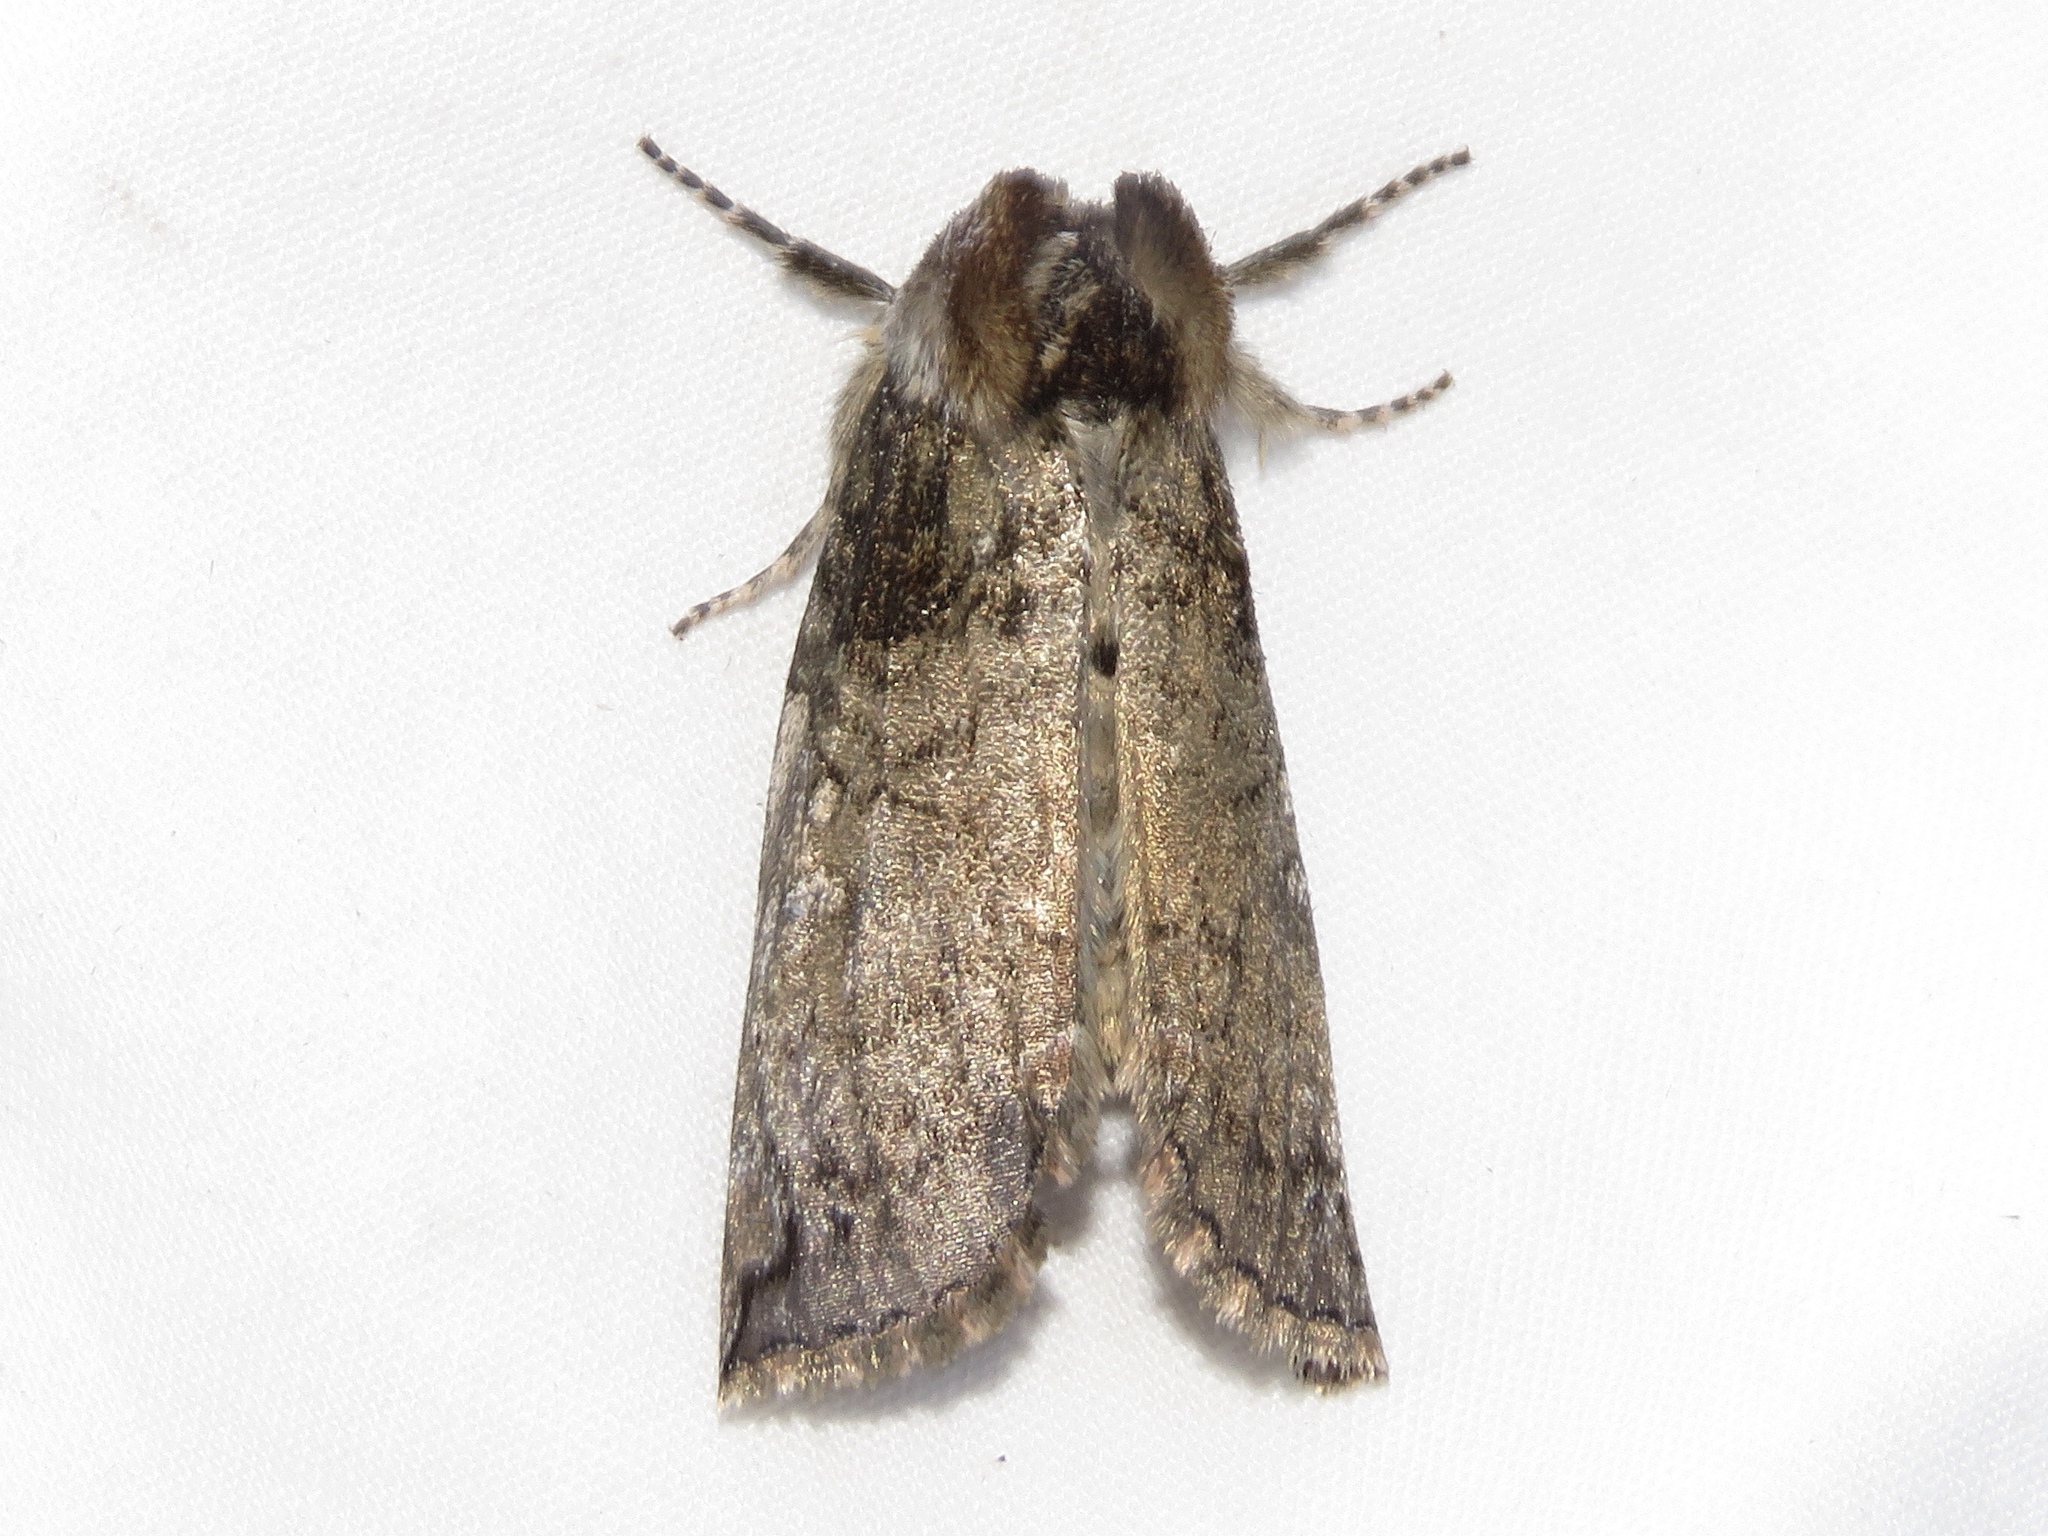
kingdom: Animalia
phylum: Arthropoda
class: Insecta
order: Lepidoptera
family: Drepanidae
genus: Euthyatira
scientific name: Euthyatira pudens
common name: Dogwood thyatirid moth
